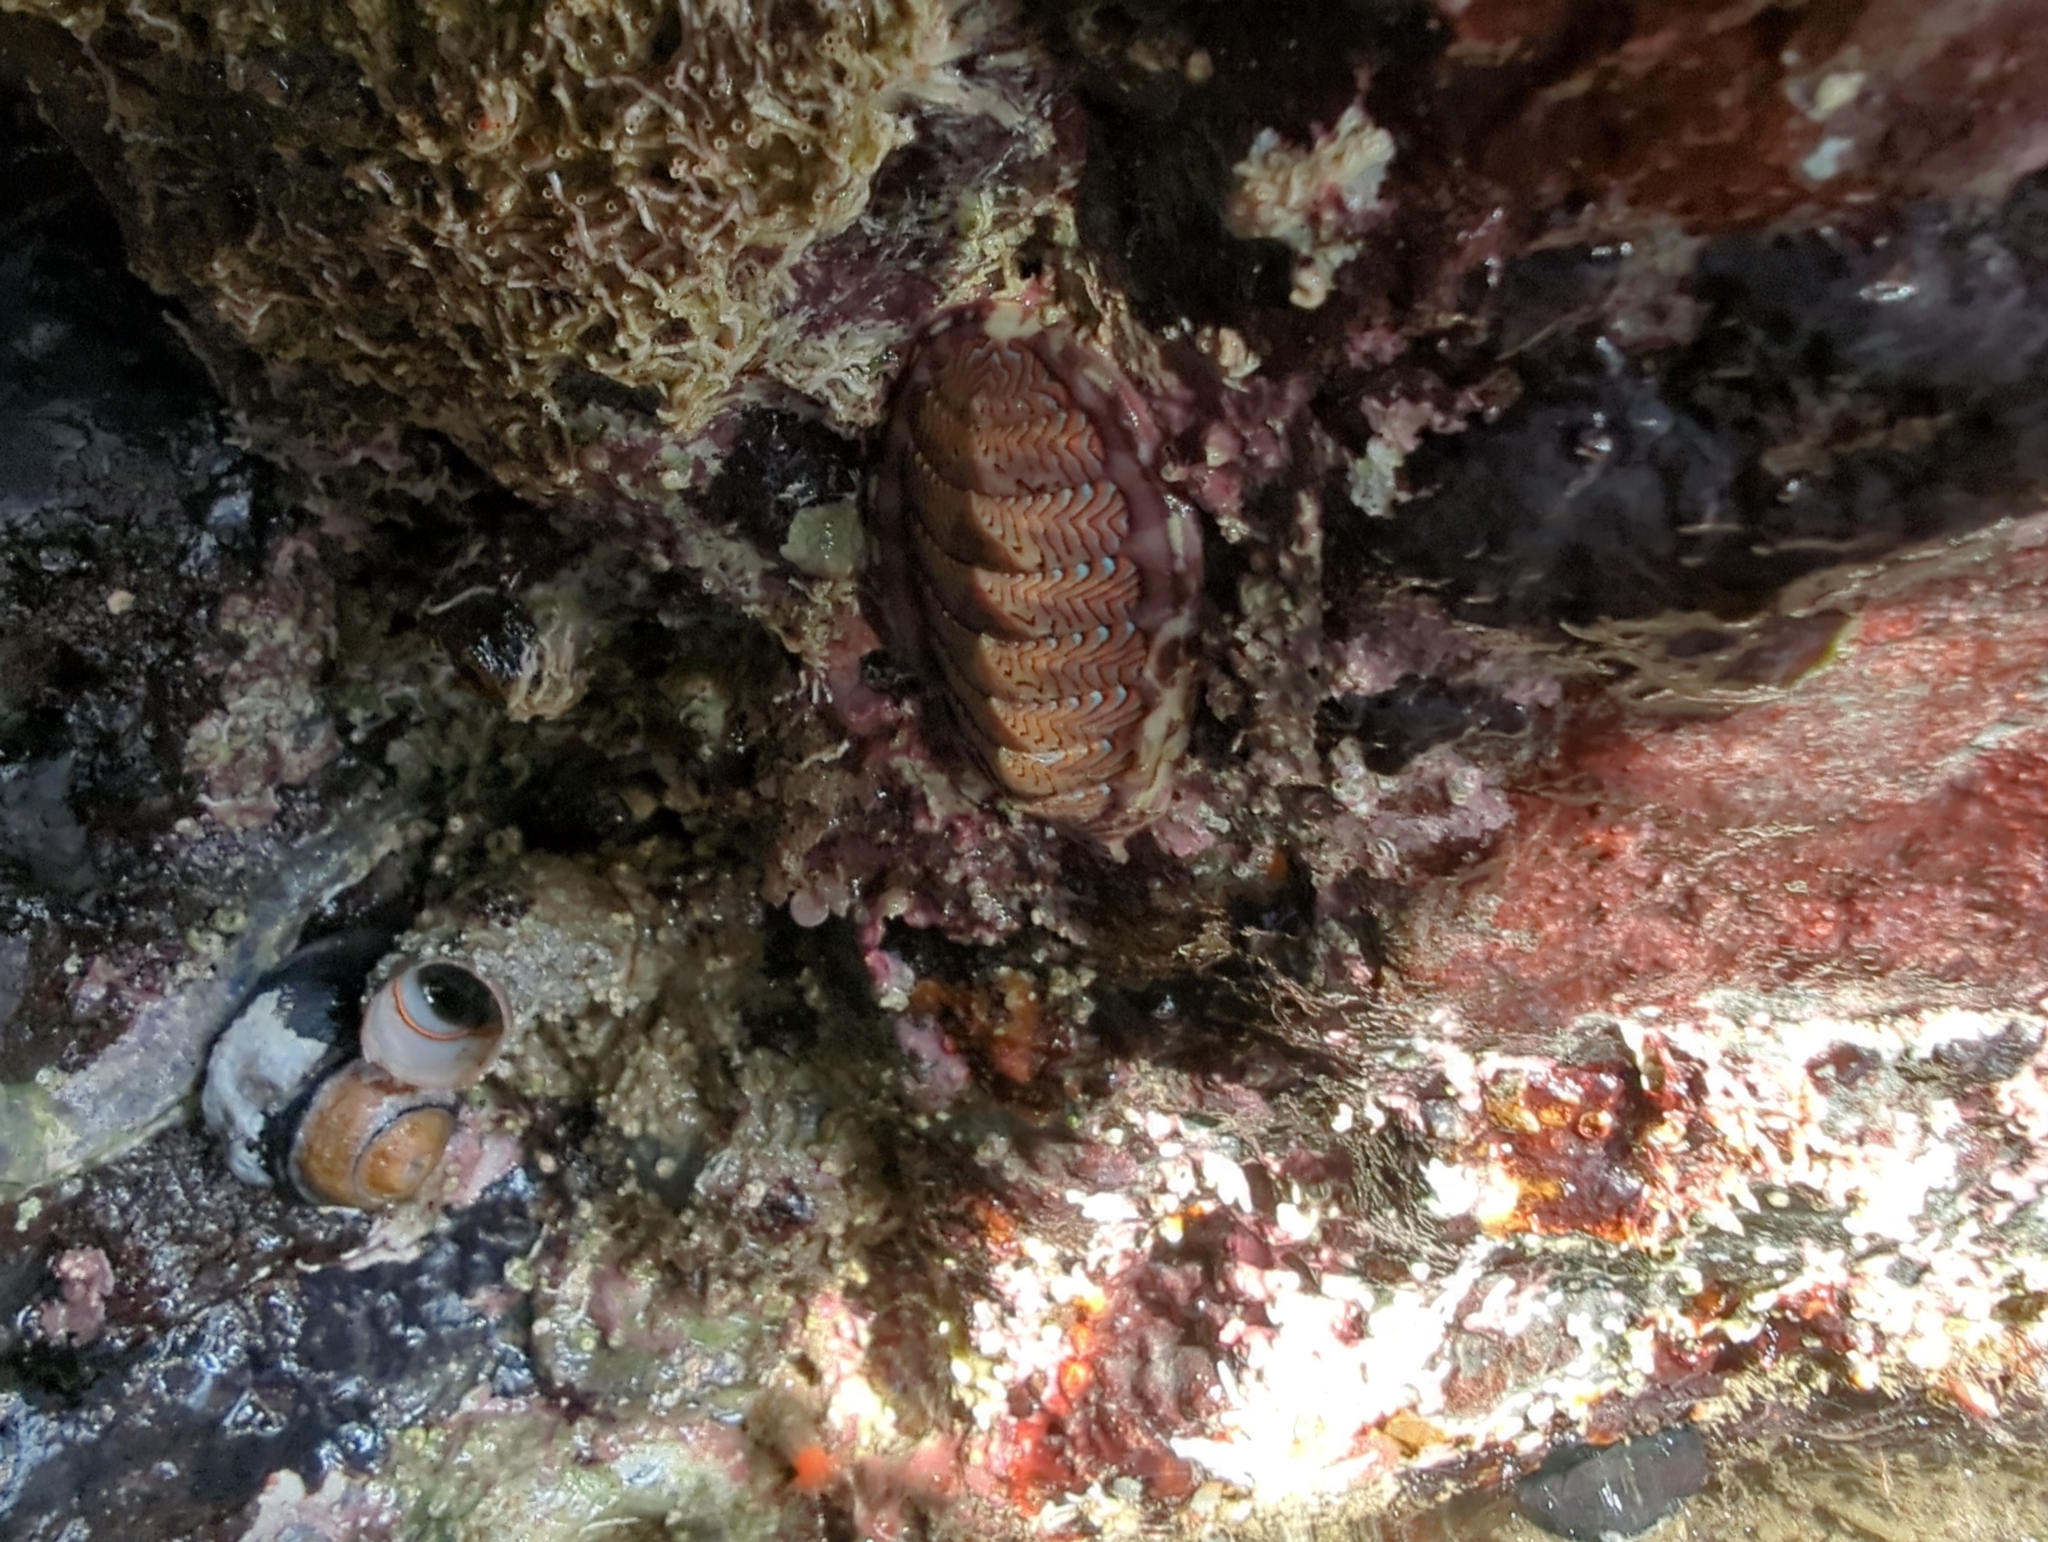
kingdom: Animalia
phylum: Mollusca
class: Polyplacophora
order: Chitonida
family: Tonicellidae
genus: Tonicella
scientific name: Tonicella lokii
